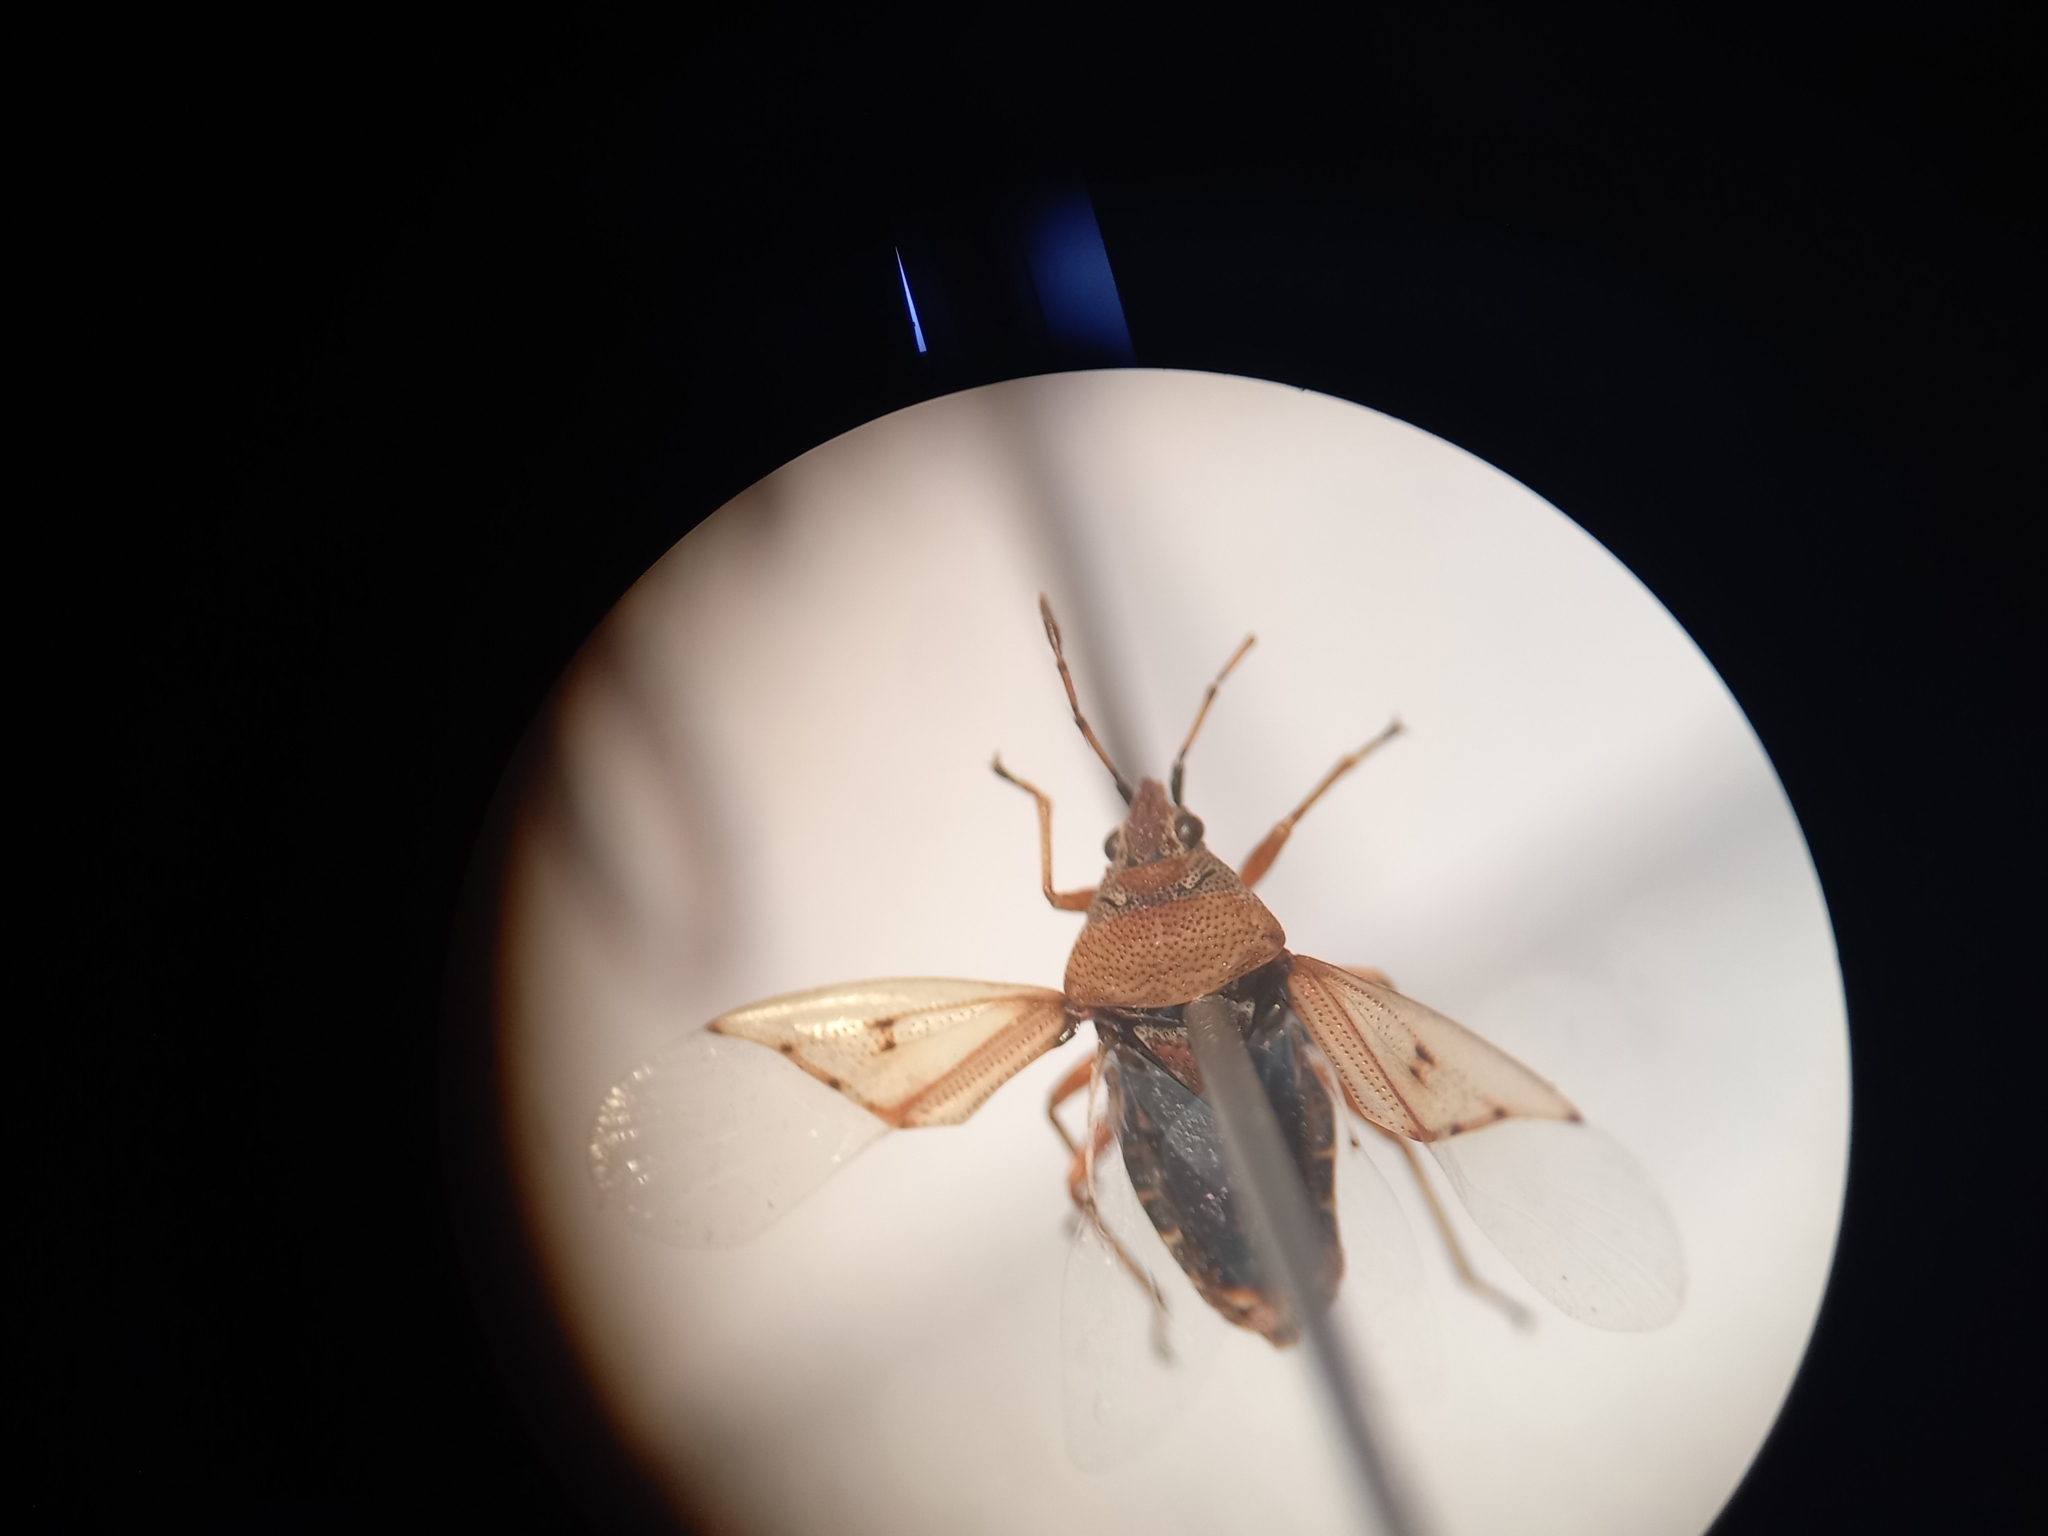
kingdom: Animalia
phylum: Arthropoda
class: Insecta
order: Hemiptera
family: Lygaeidae
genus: Kleidocerys
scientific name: Kleidocerys resedae
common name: Birch catkin bug
